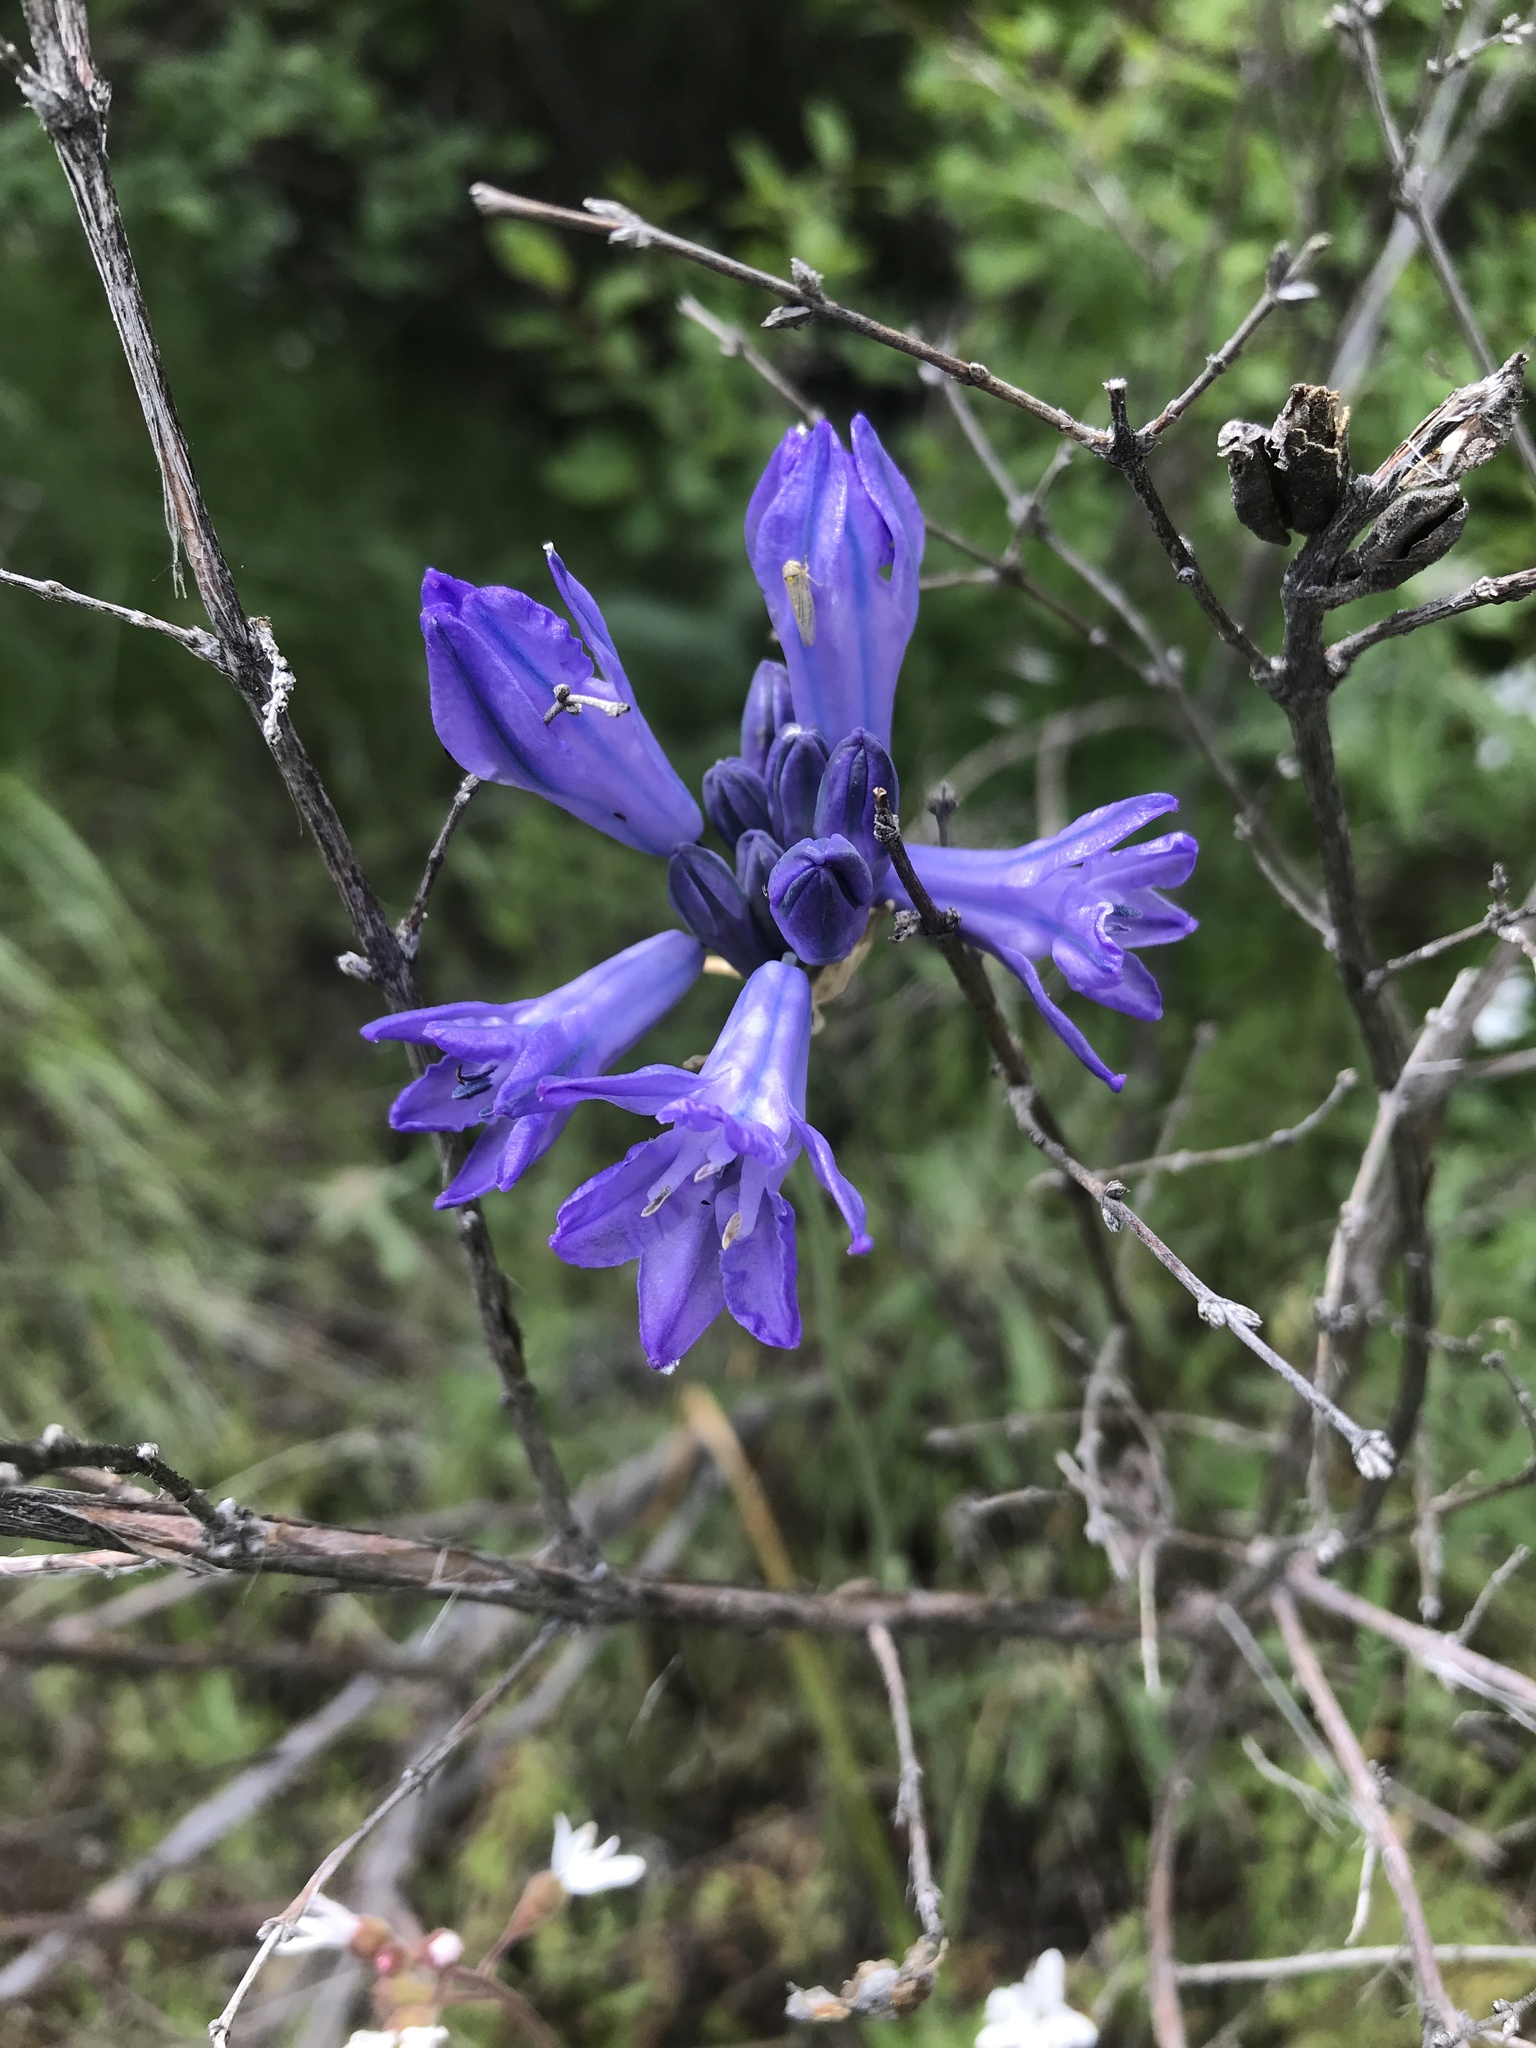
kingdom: Plantae
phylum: Tracheophyta
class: Liliopsida
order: Asparagales
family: Asparagaceae
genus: Triteleia
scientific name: Triteleia grandiflora
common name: Wild hyacinth
